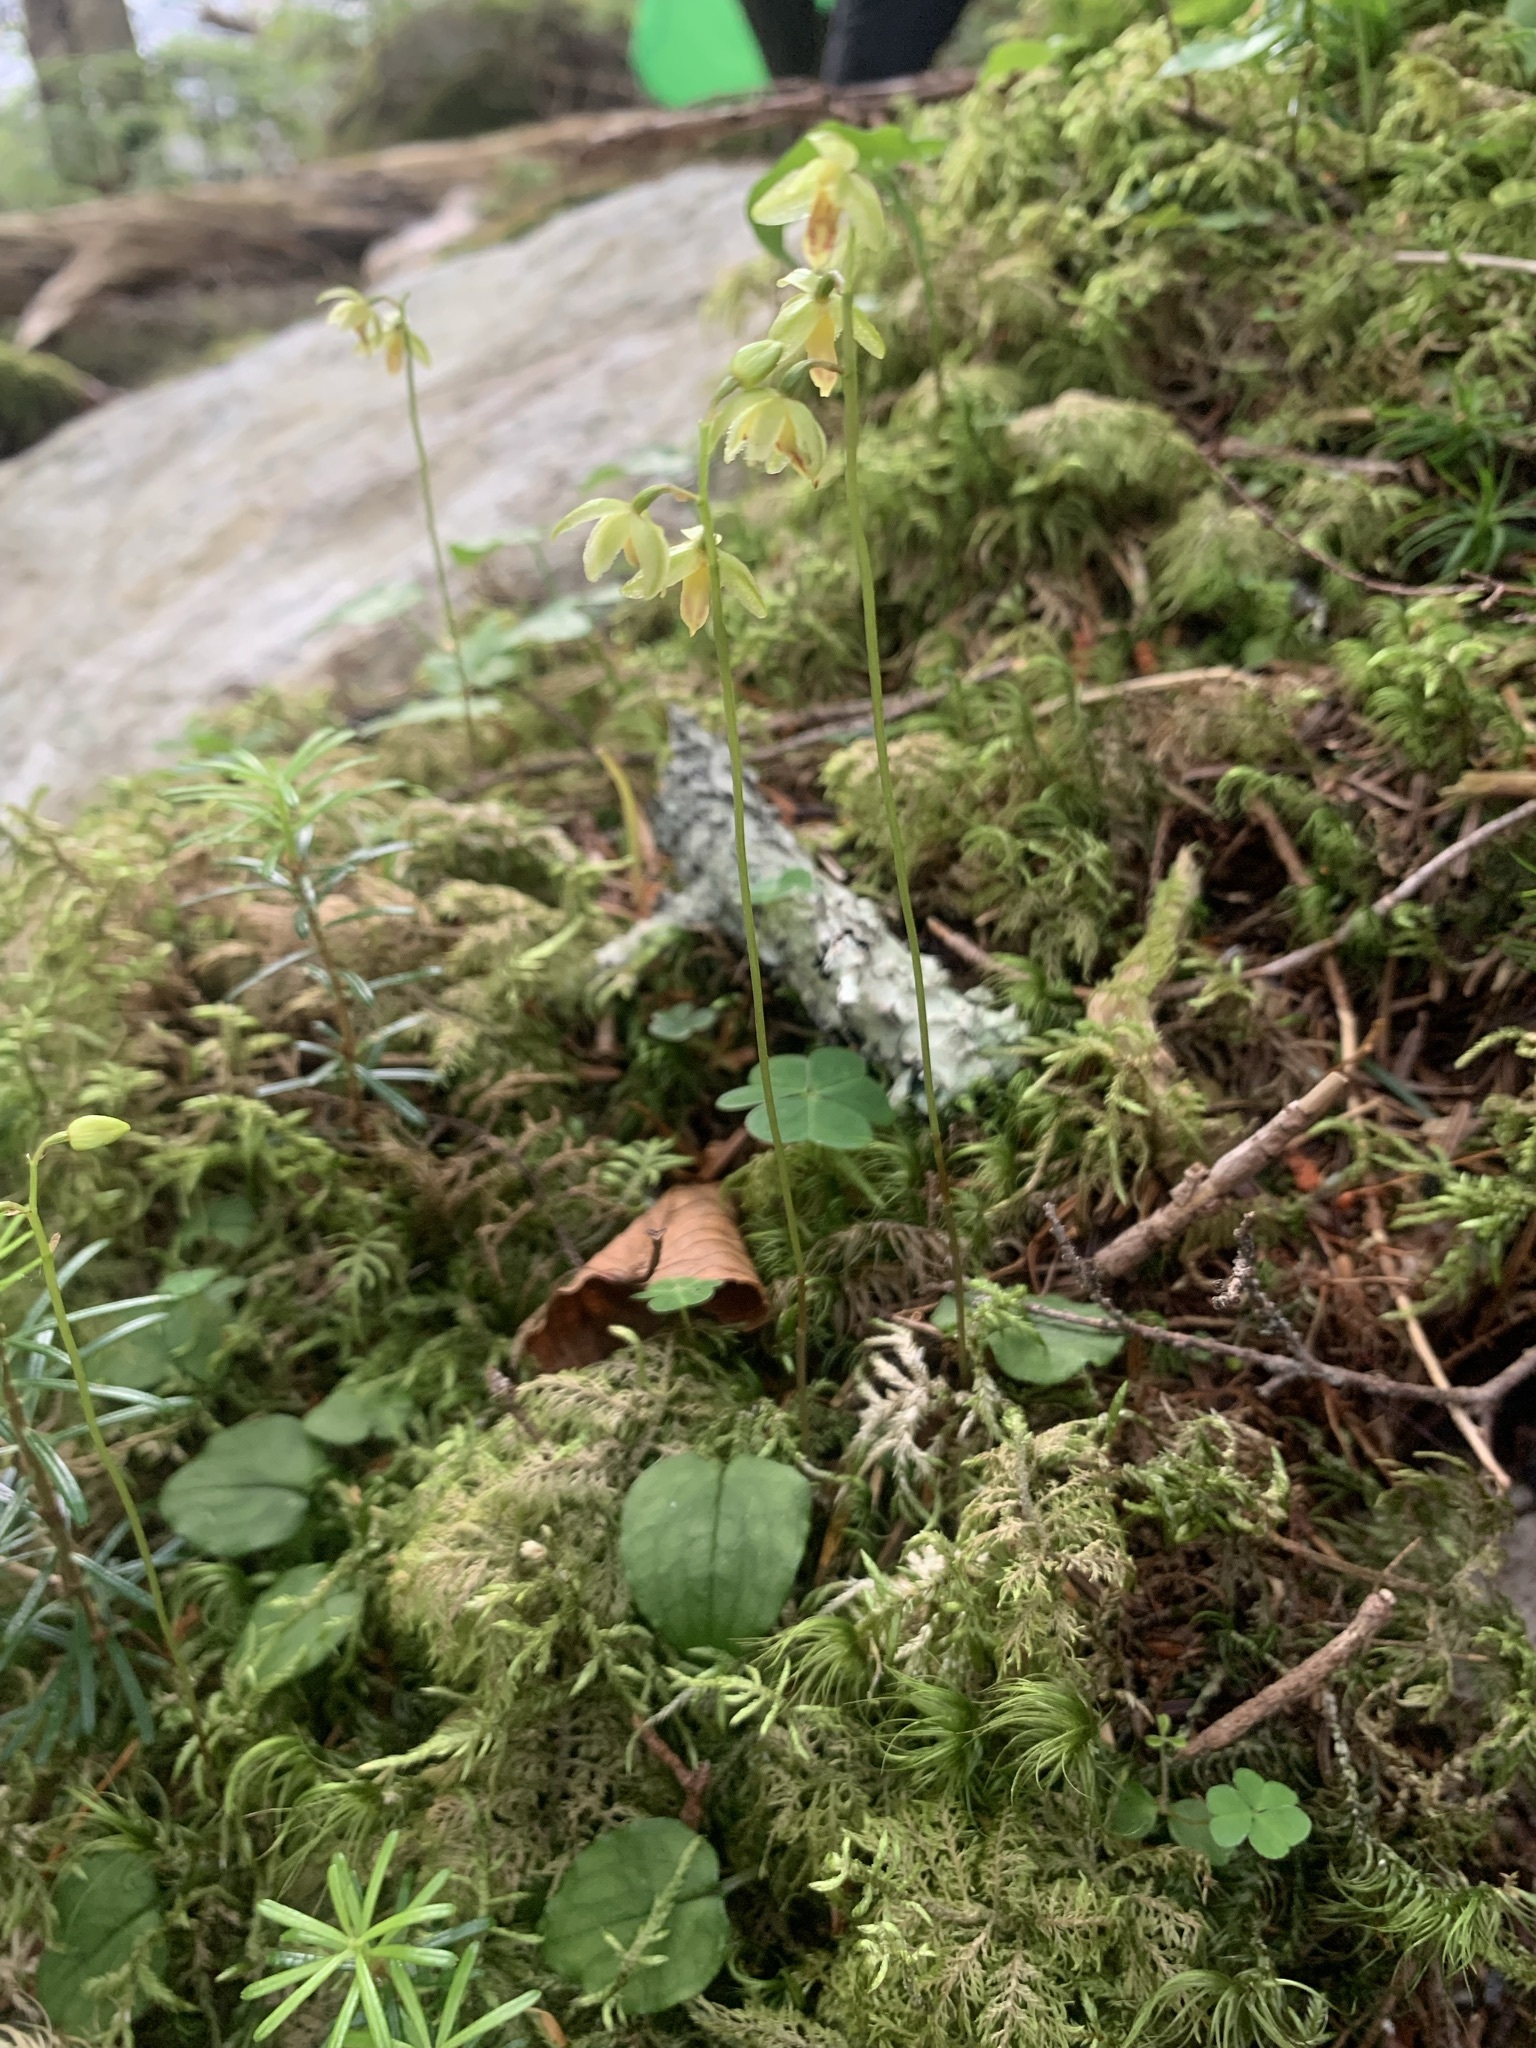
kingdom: Plantae
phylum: Tracheophyta
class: Liliopsida
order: Asparagales
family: Orchidaceae
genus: Ephippianthus
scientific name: Ephippianthus sachalinensis
